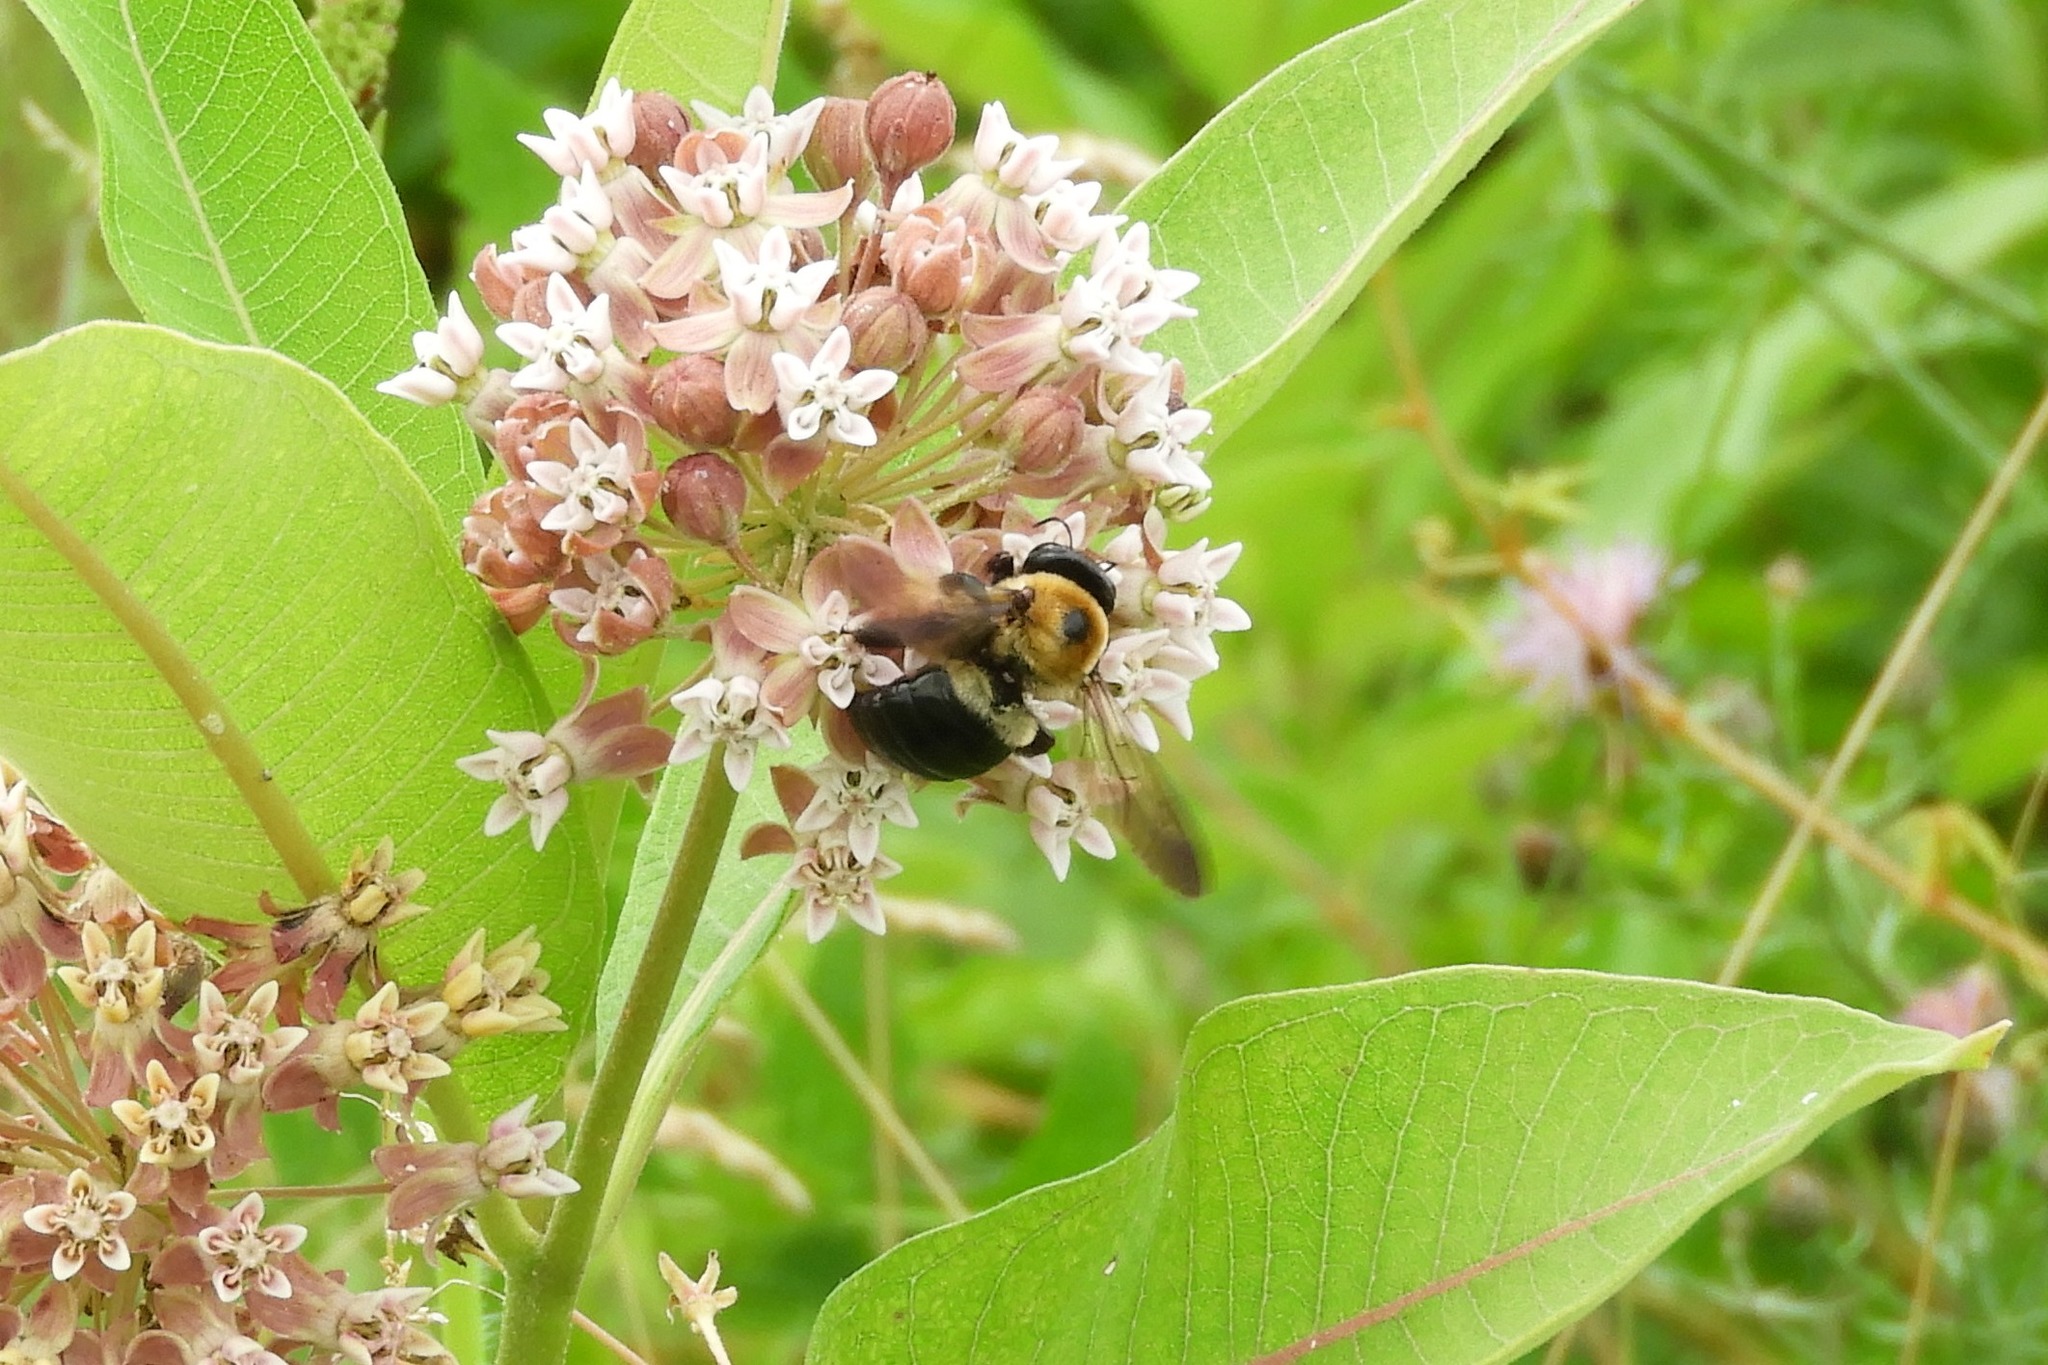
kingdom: Animalia
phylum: Arthropoda
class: Insecta
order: Hymenoptera
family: Apidae
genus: Xylocopa
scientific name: Xylocopa virginica
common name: Carpenter bee
